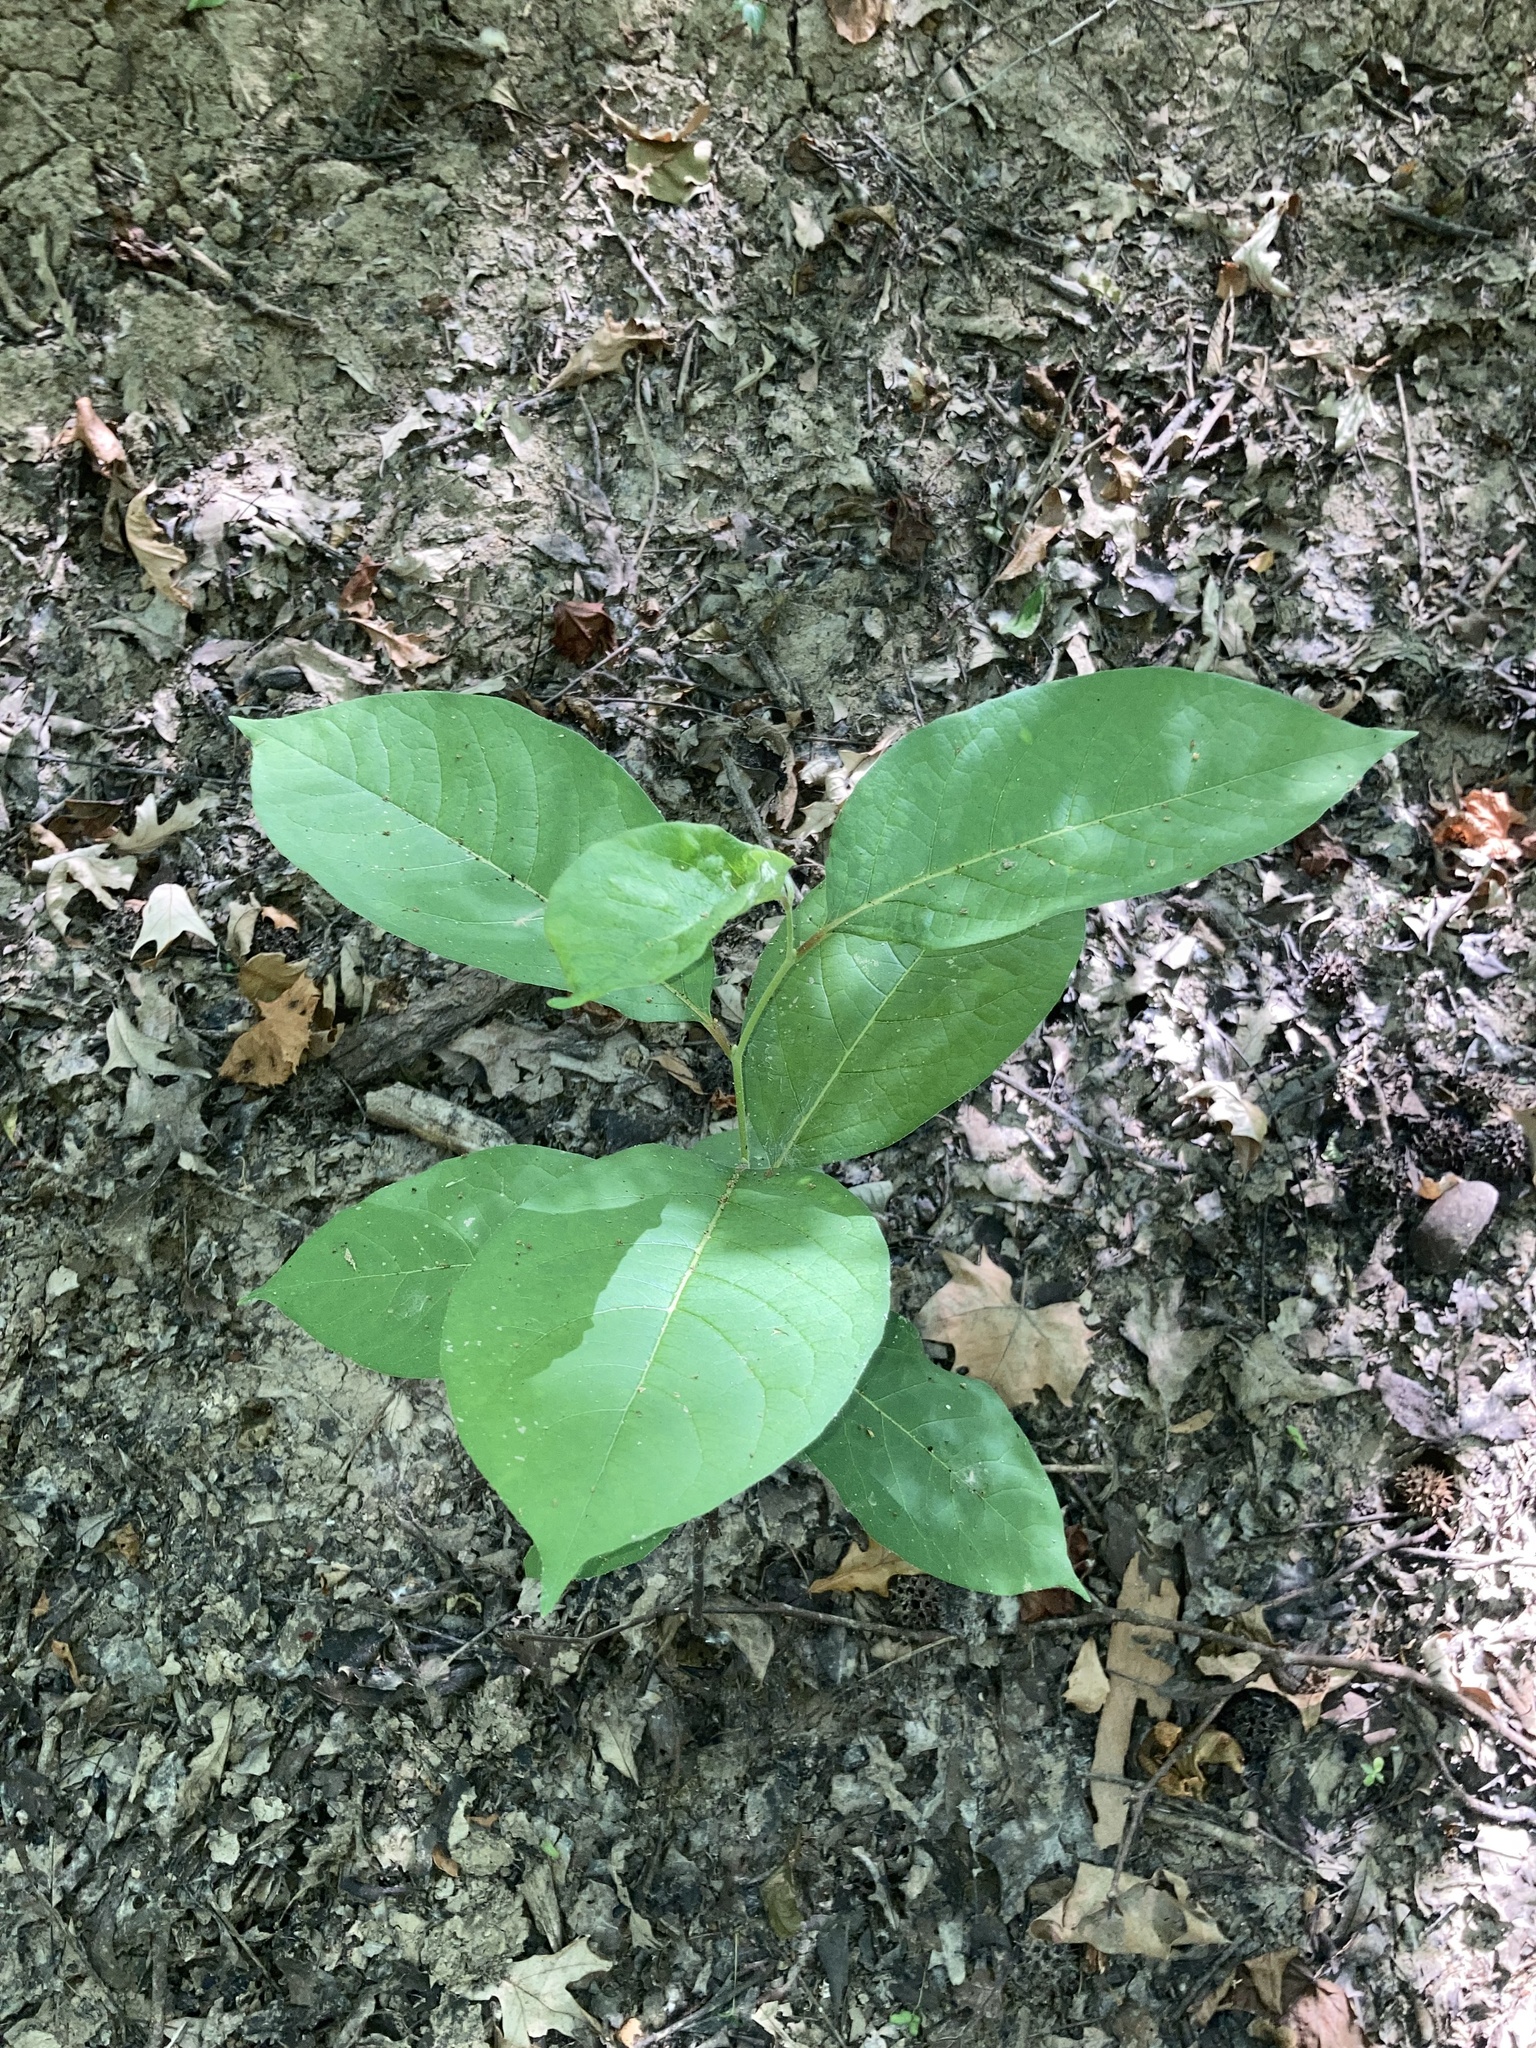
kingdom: Plantae
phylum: Tracheophyta
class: Magnoliopsida
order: Ericales
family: Ebenaceae
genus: Diospyros
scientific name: Diospyros virginiana
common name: Persimmon
